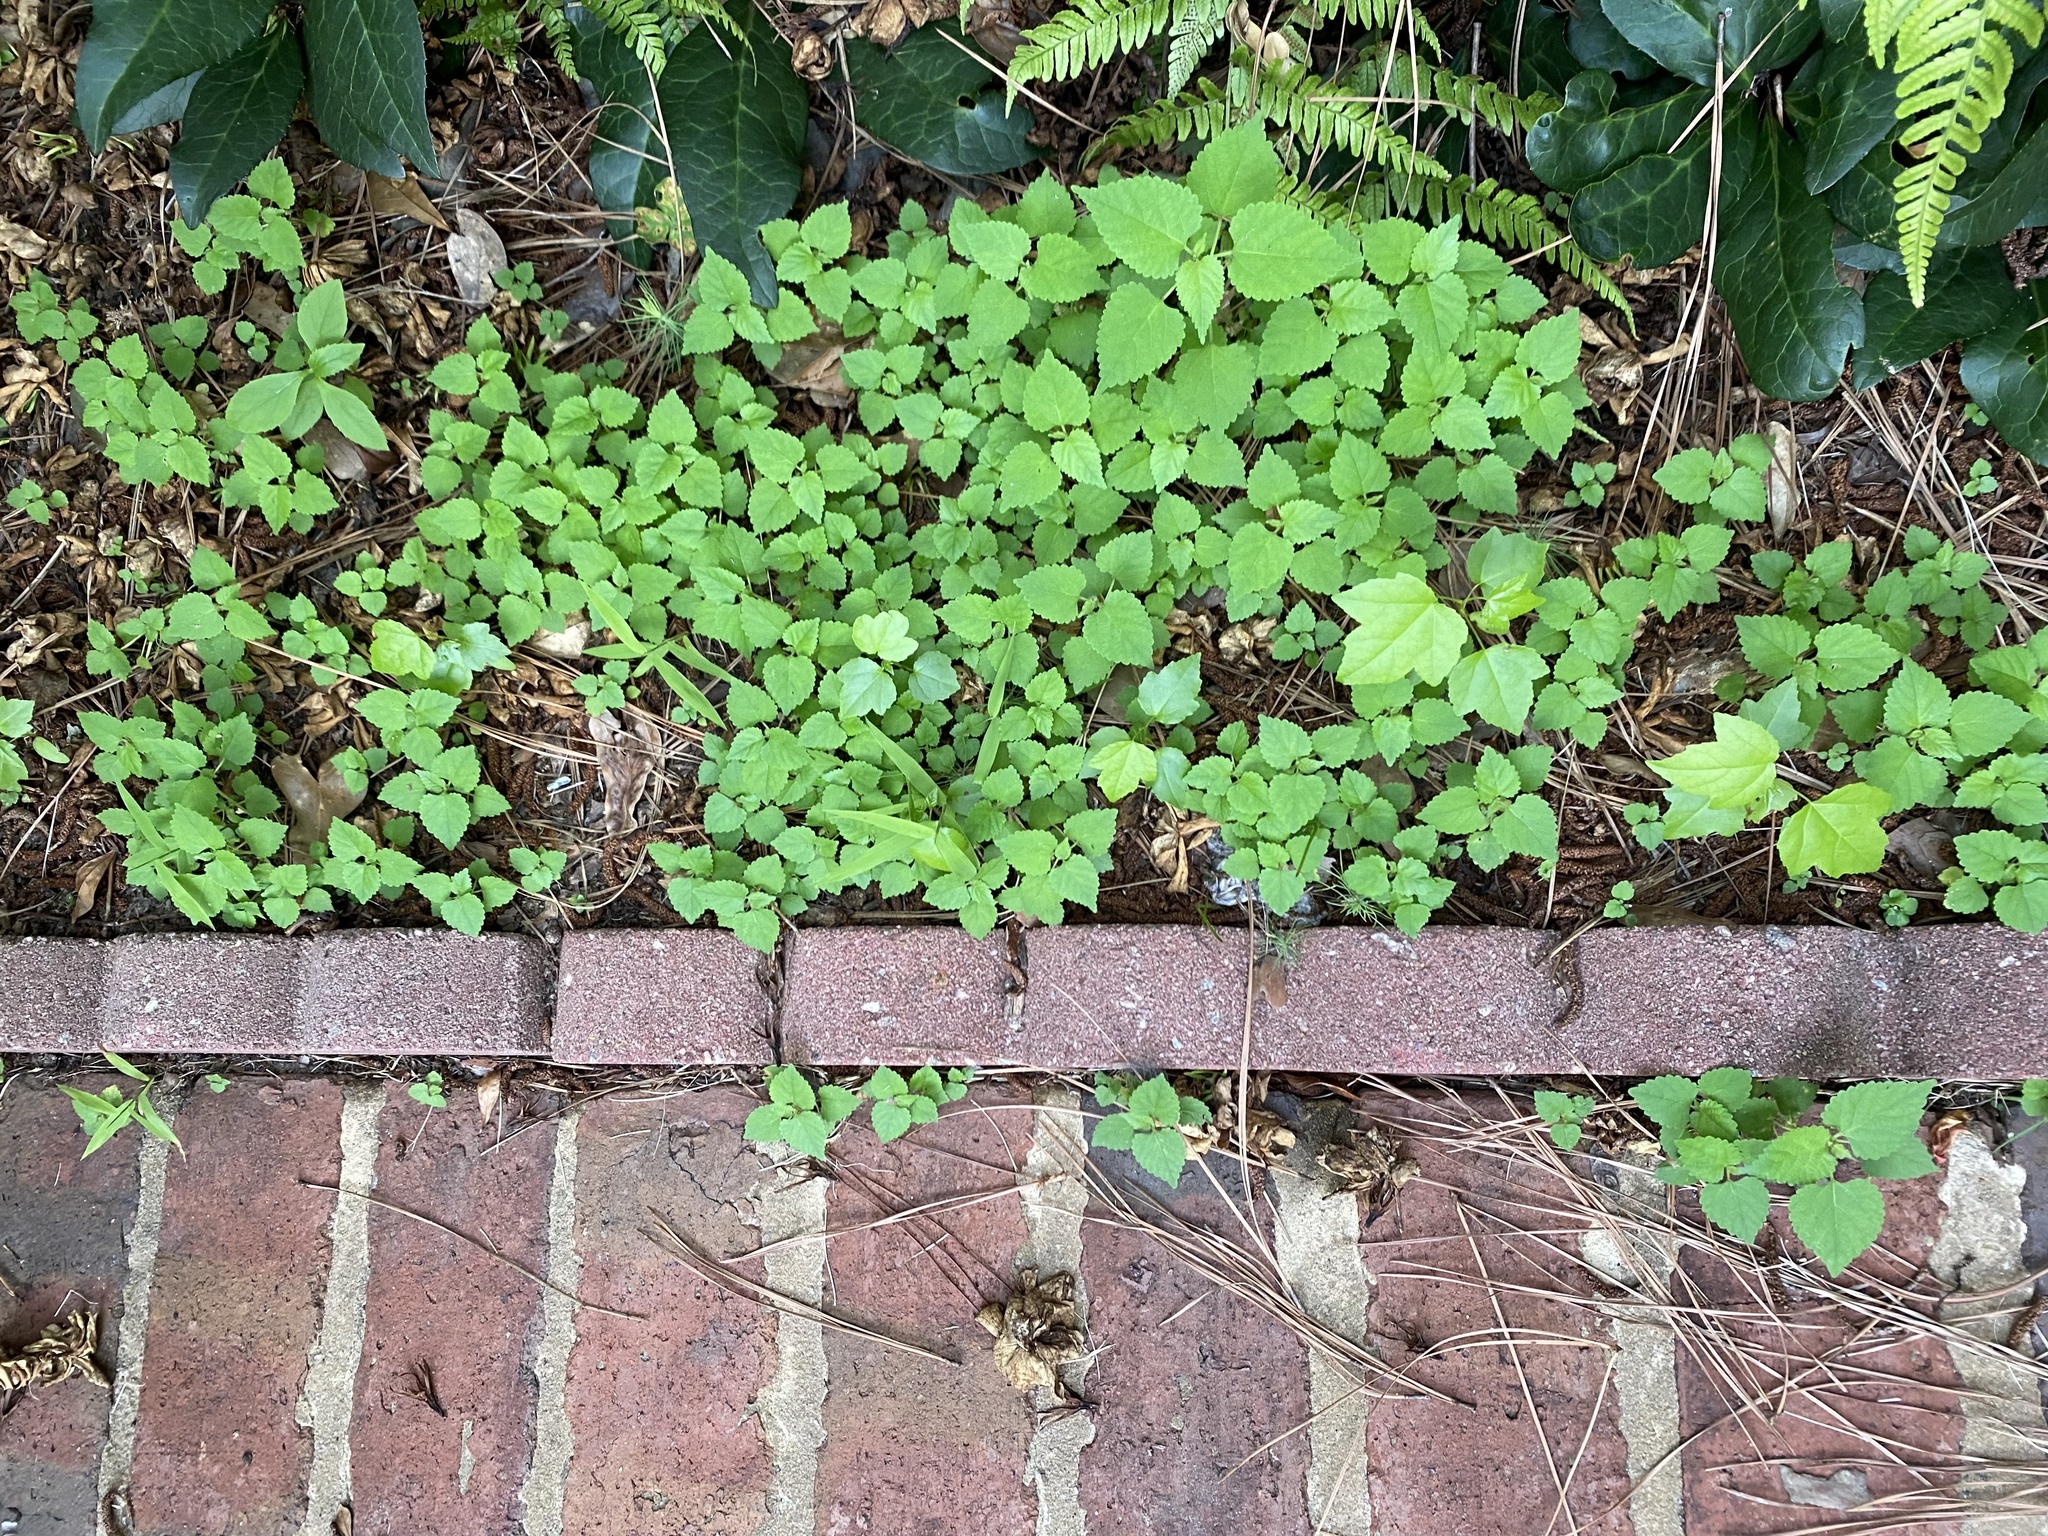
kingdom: Plantae
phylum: Tracheophyta
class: Magnoliopsida
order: Rosales
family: Moraceae
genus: Fatoua
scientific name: Fatoua villosa
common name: Hairy crabweed
